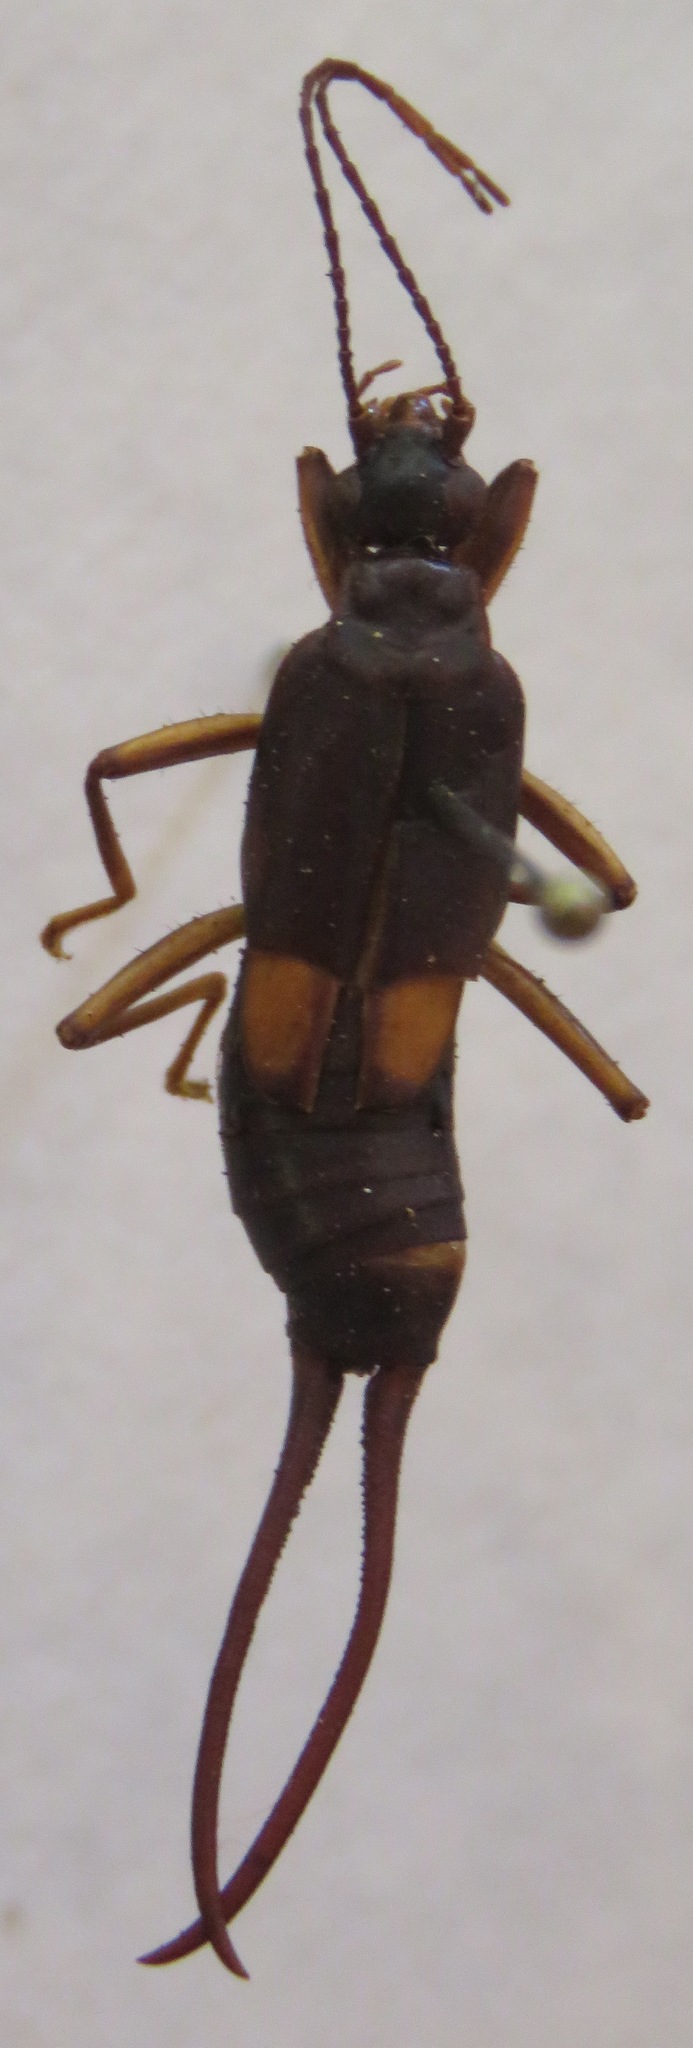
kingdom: Animalia
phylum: Arthropoda
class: Insecta
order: Dermaptera
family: Spongiphoridae
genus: Spongiphora
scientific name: Spongiphora croceipennis
